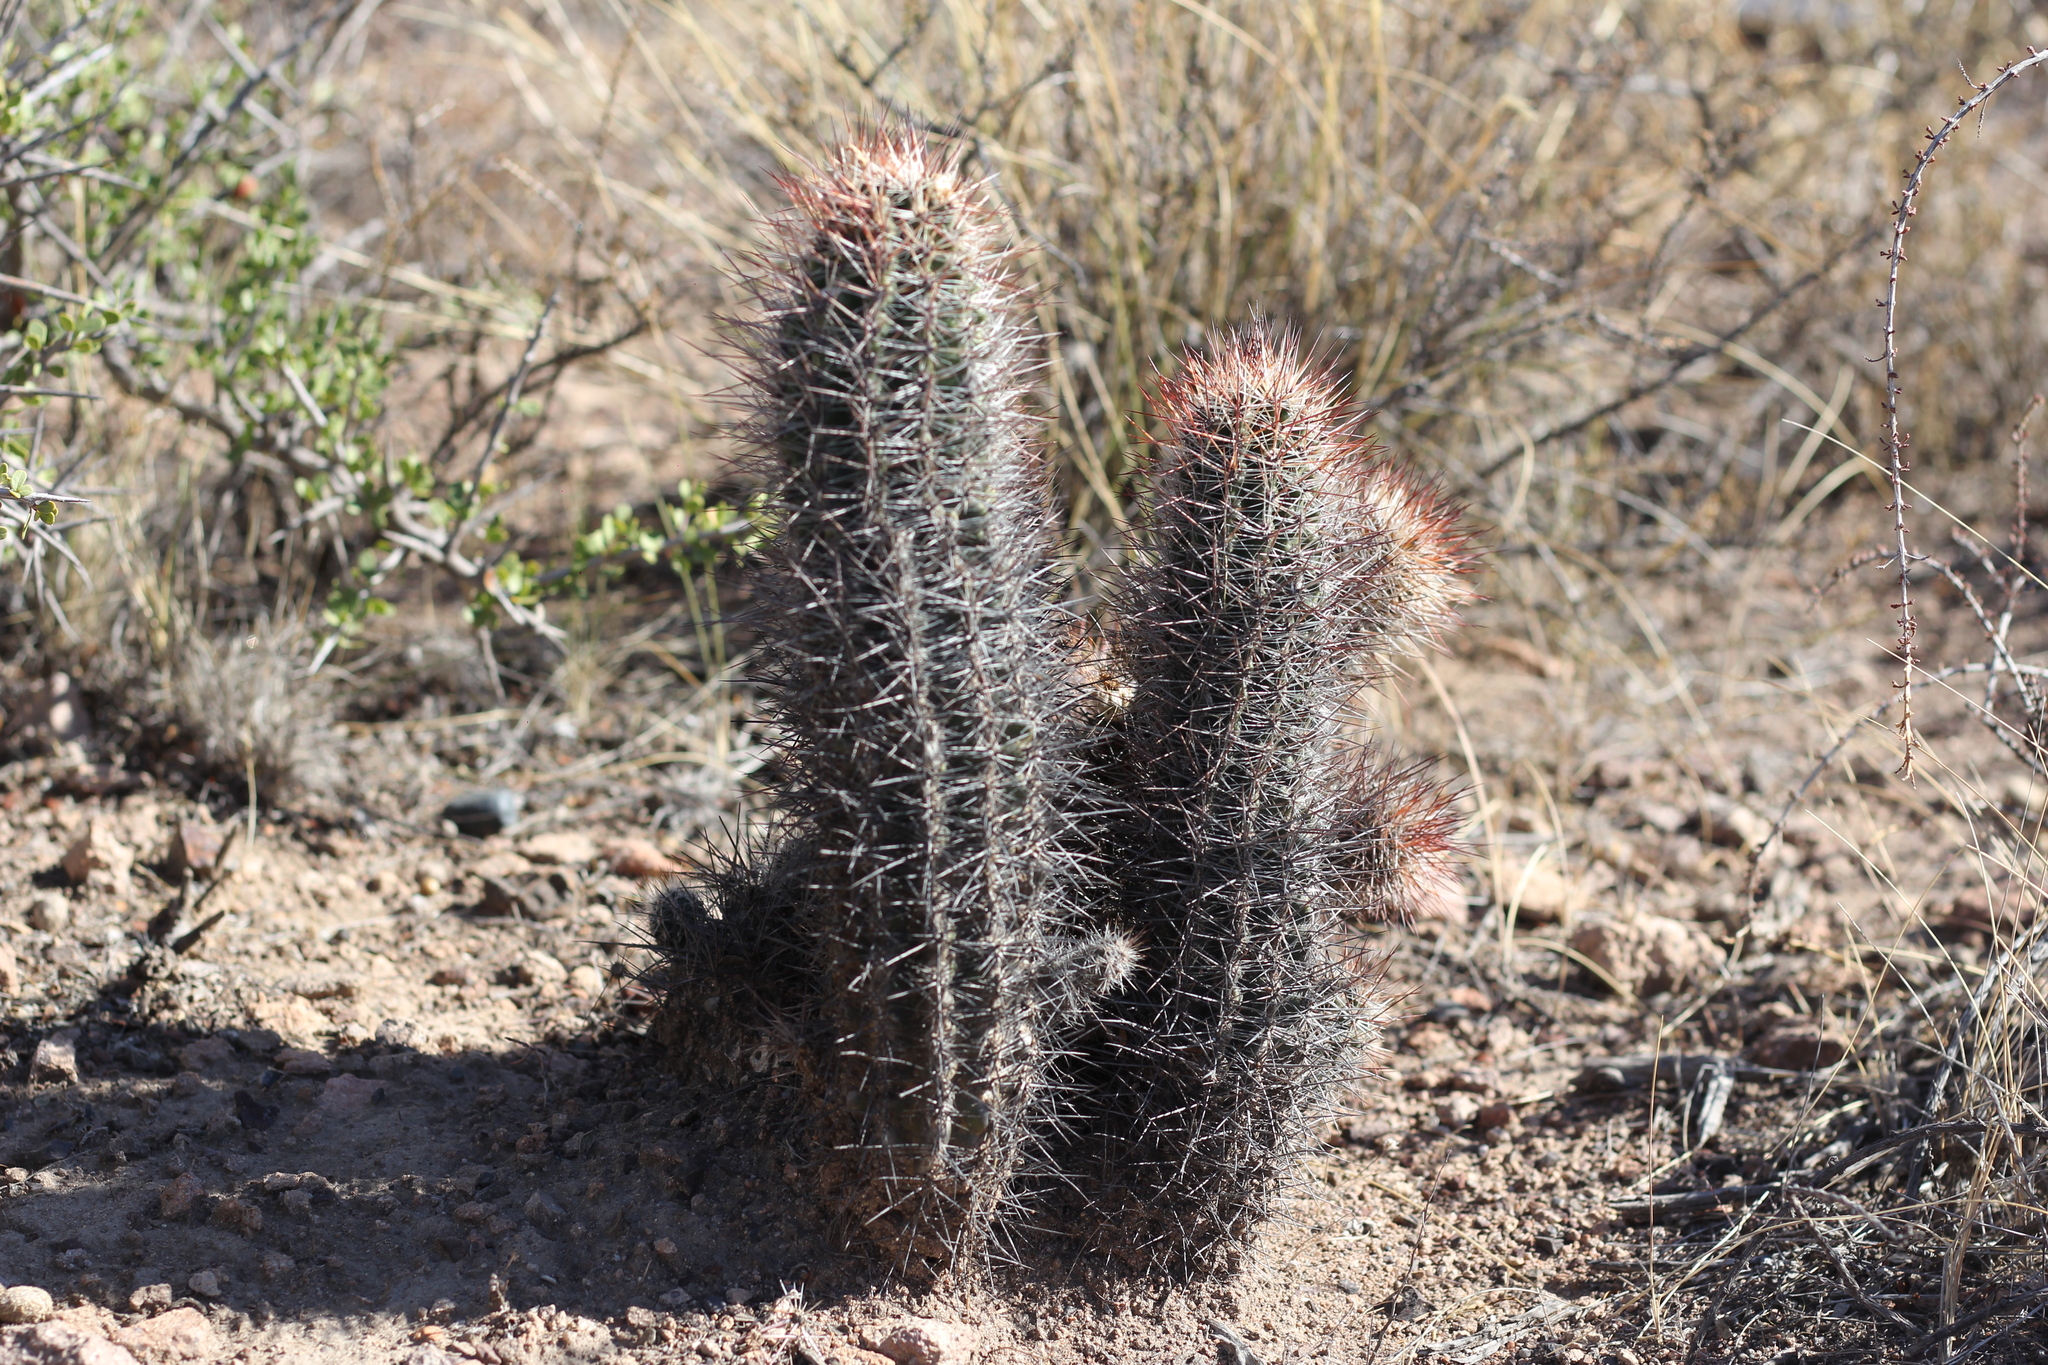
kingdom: Plantae
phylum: Tracheophyta
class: Magnoliopsida
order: Caryophyllales
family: Cactaceae
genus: Austrocactus
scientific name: Austrocactus bertinii
